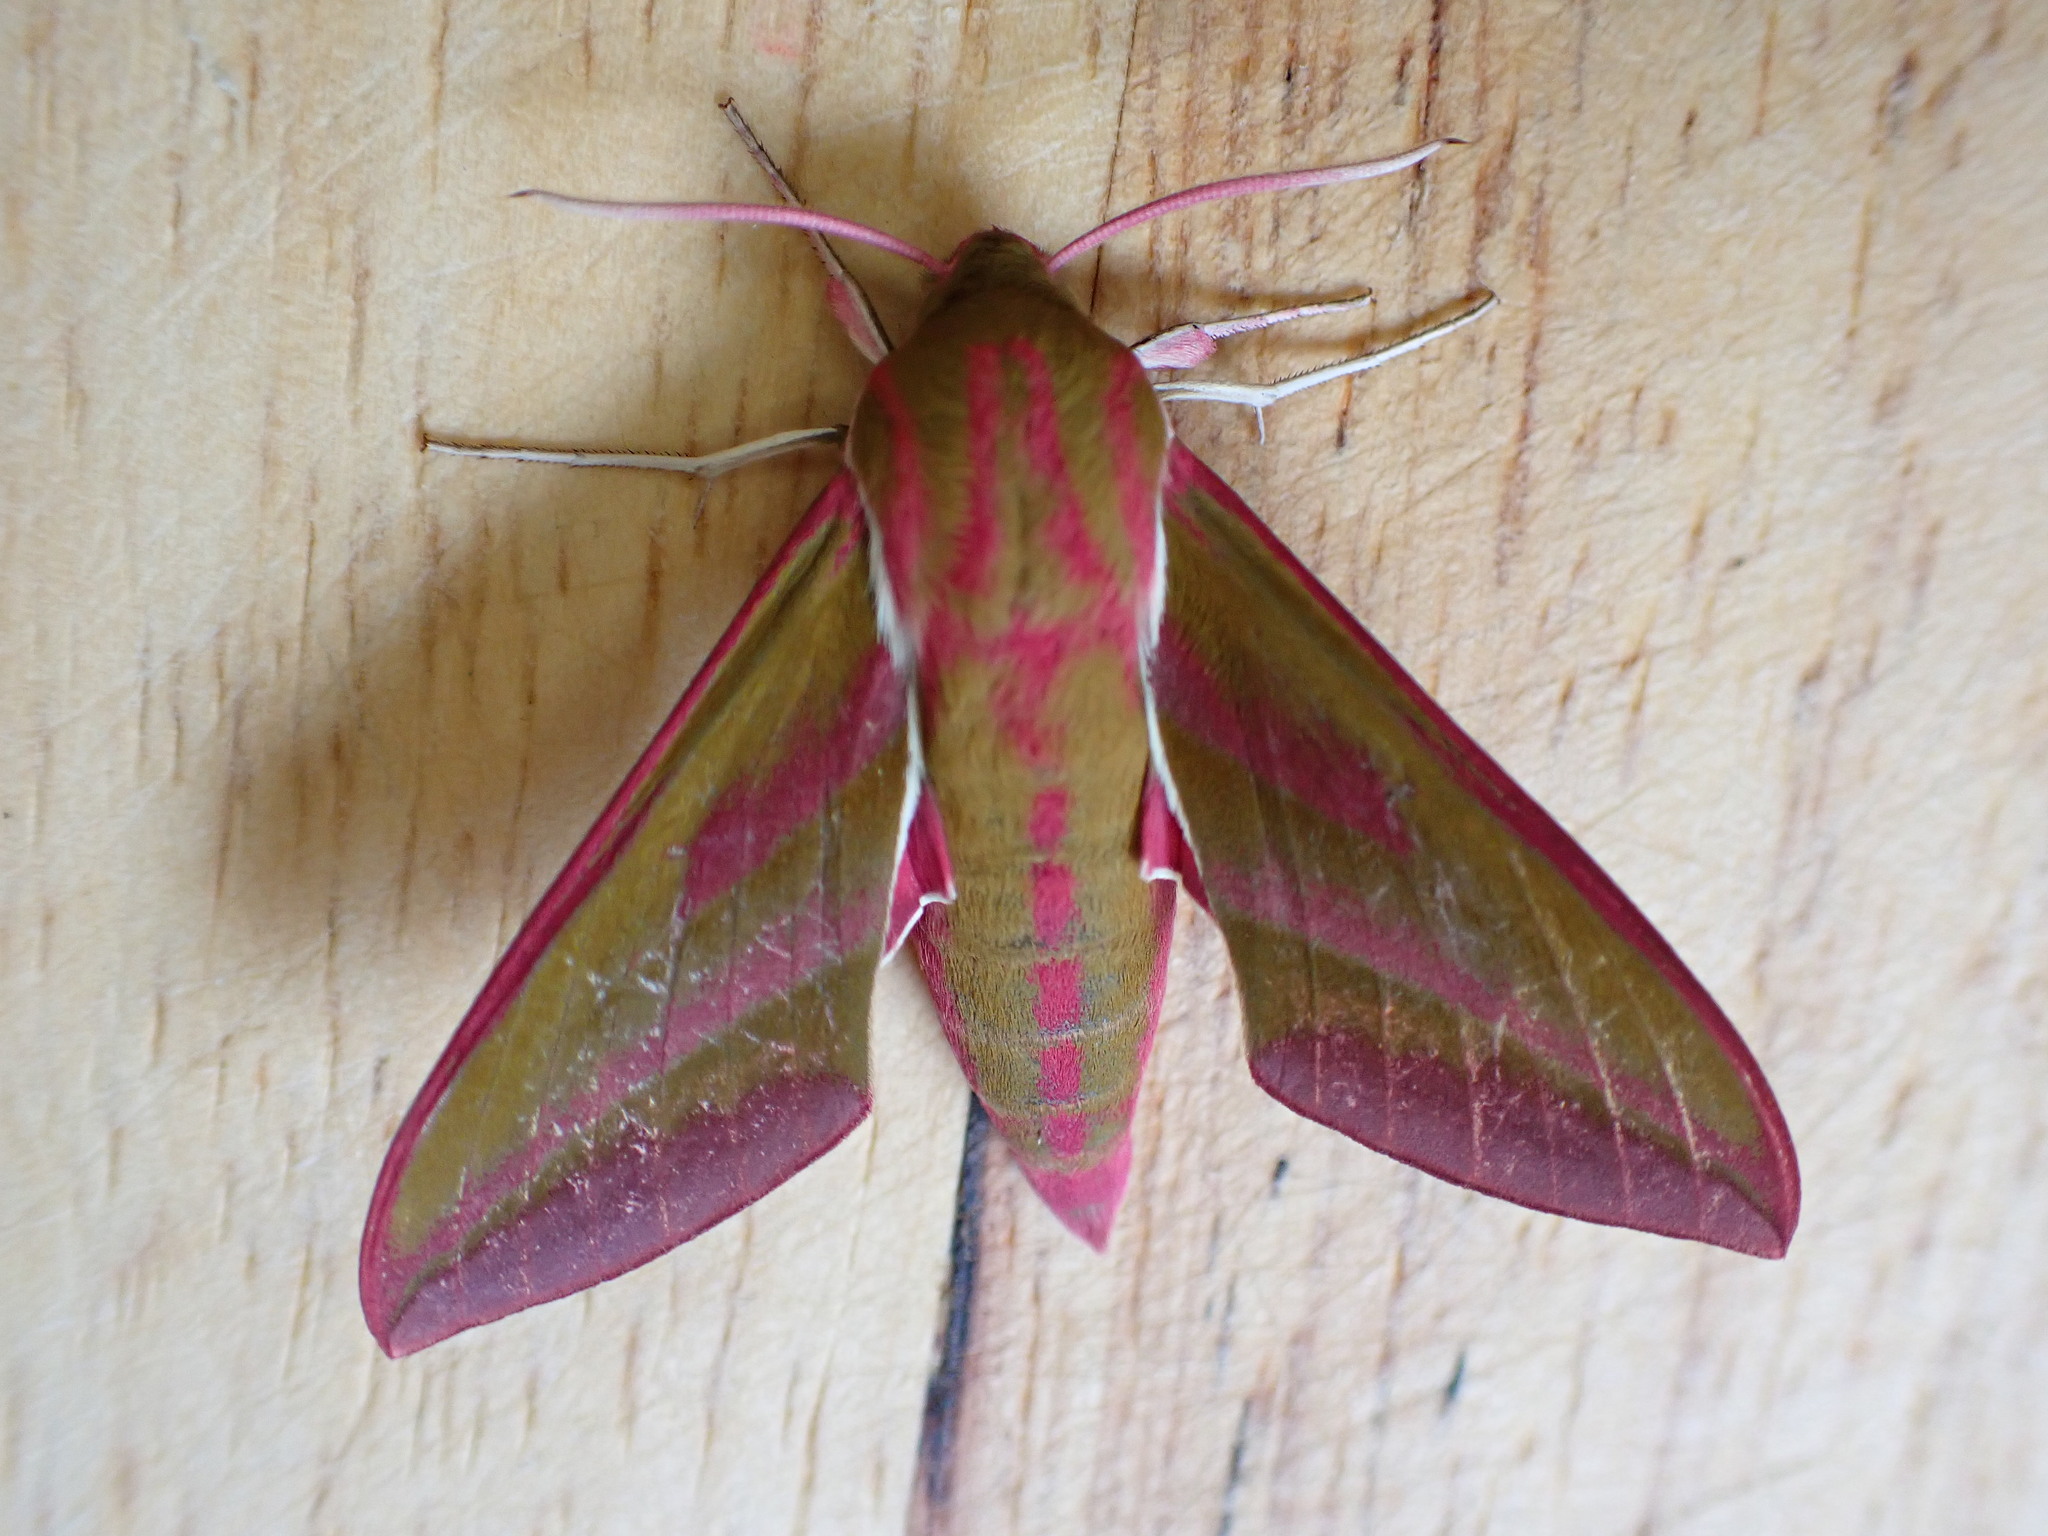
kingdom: Animalia
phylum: Arthropoda
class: Insecta
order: Lepidoptera
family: Sphingidae
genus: Deilephila
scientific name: Deilephila elpenor
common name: Elephant hawk-moth
